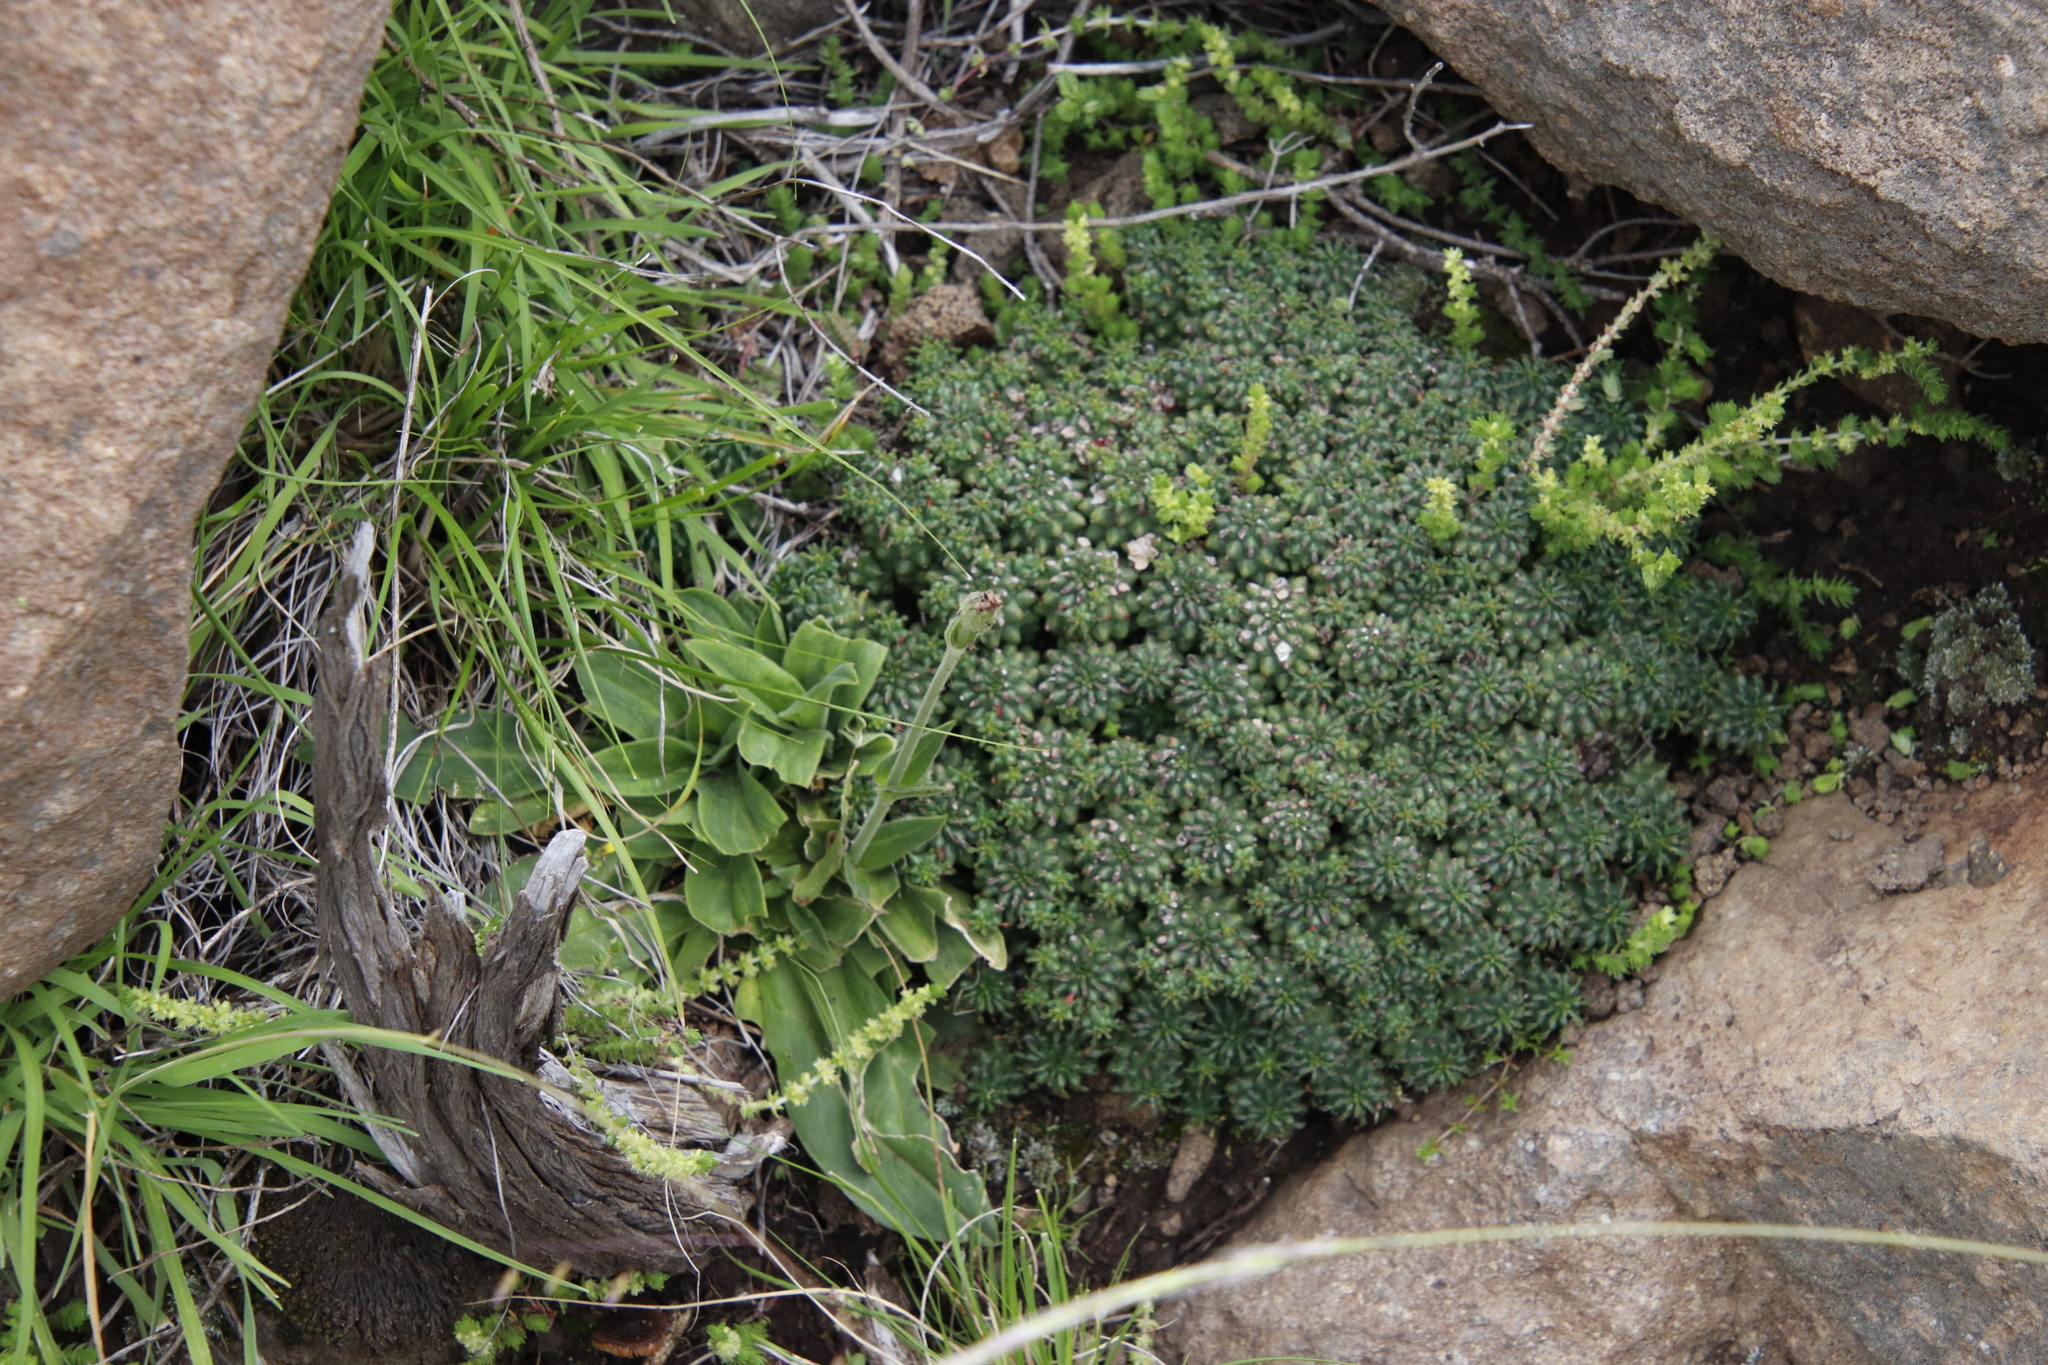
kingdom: Plantae
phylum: Tracheophyta
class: Magnoliopsida
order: Malpighiales
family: Euphorbiaceae
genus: Euphorbia
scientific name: Euphorbia clavarioides
